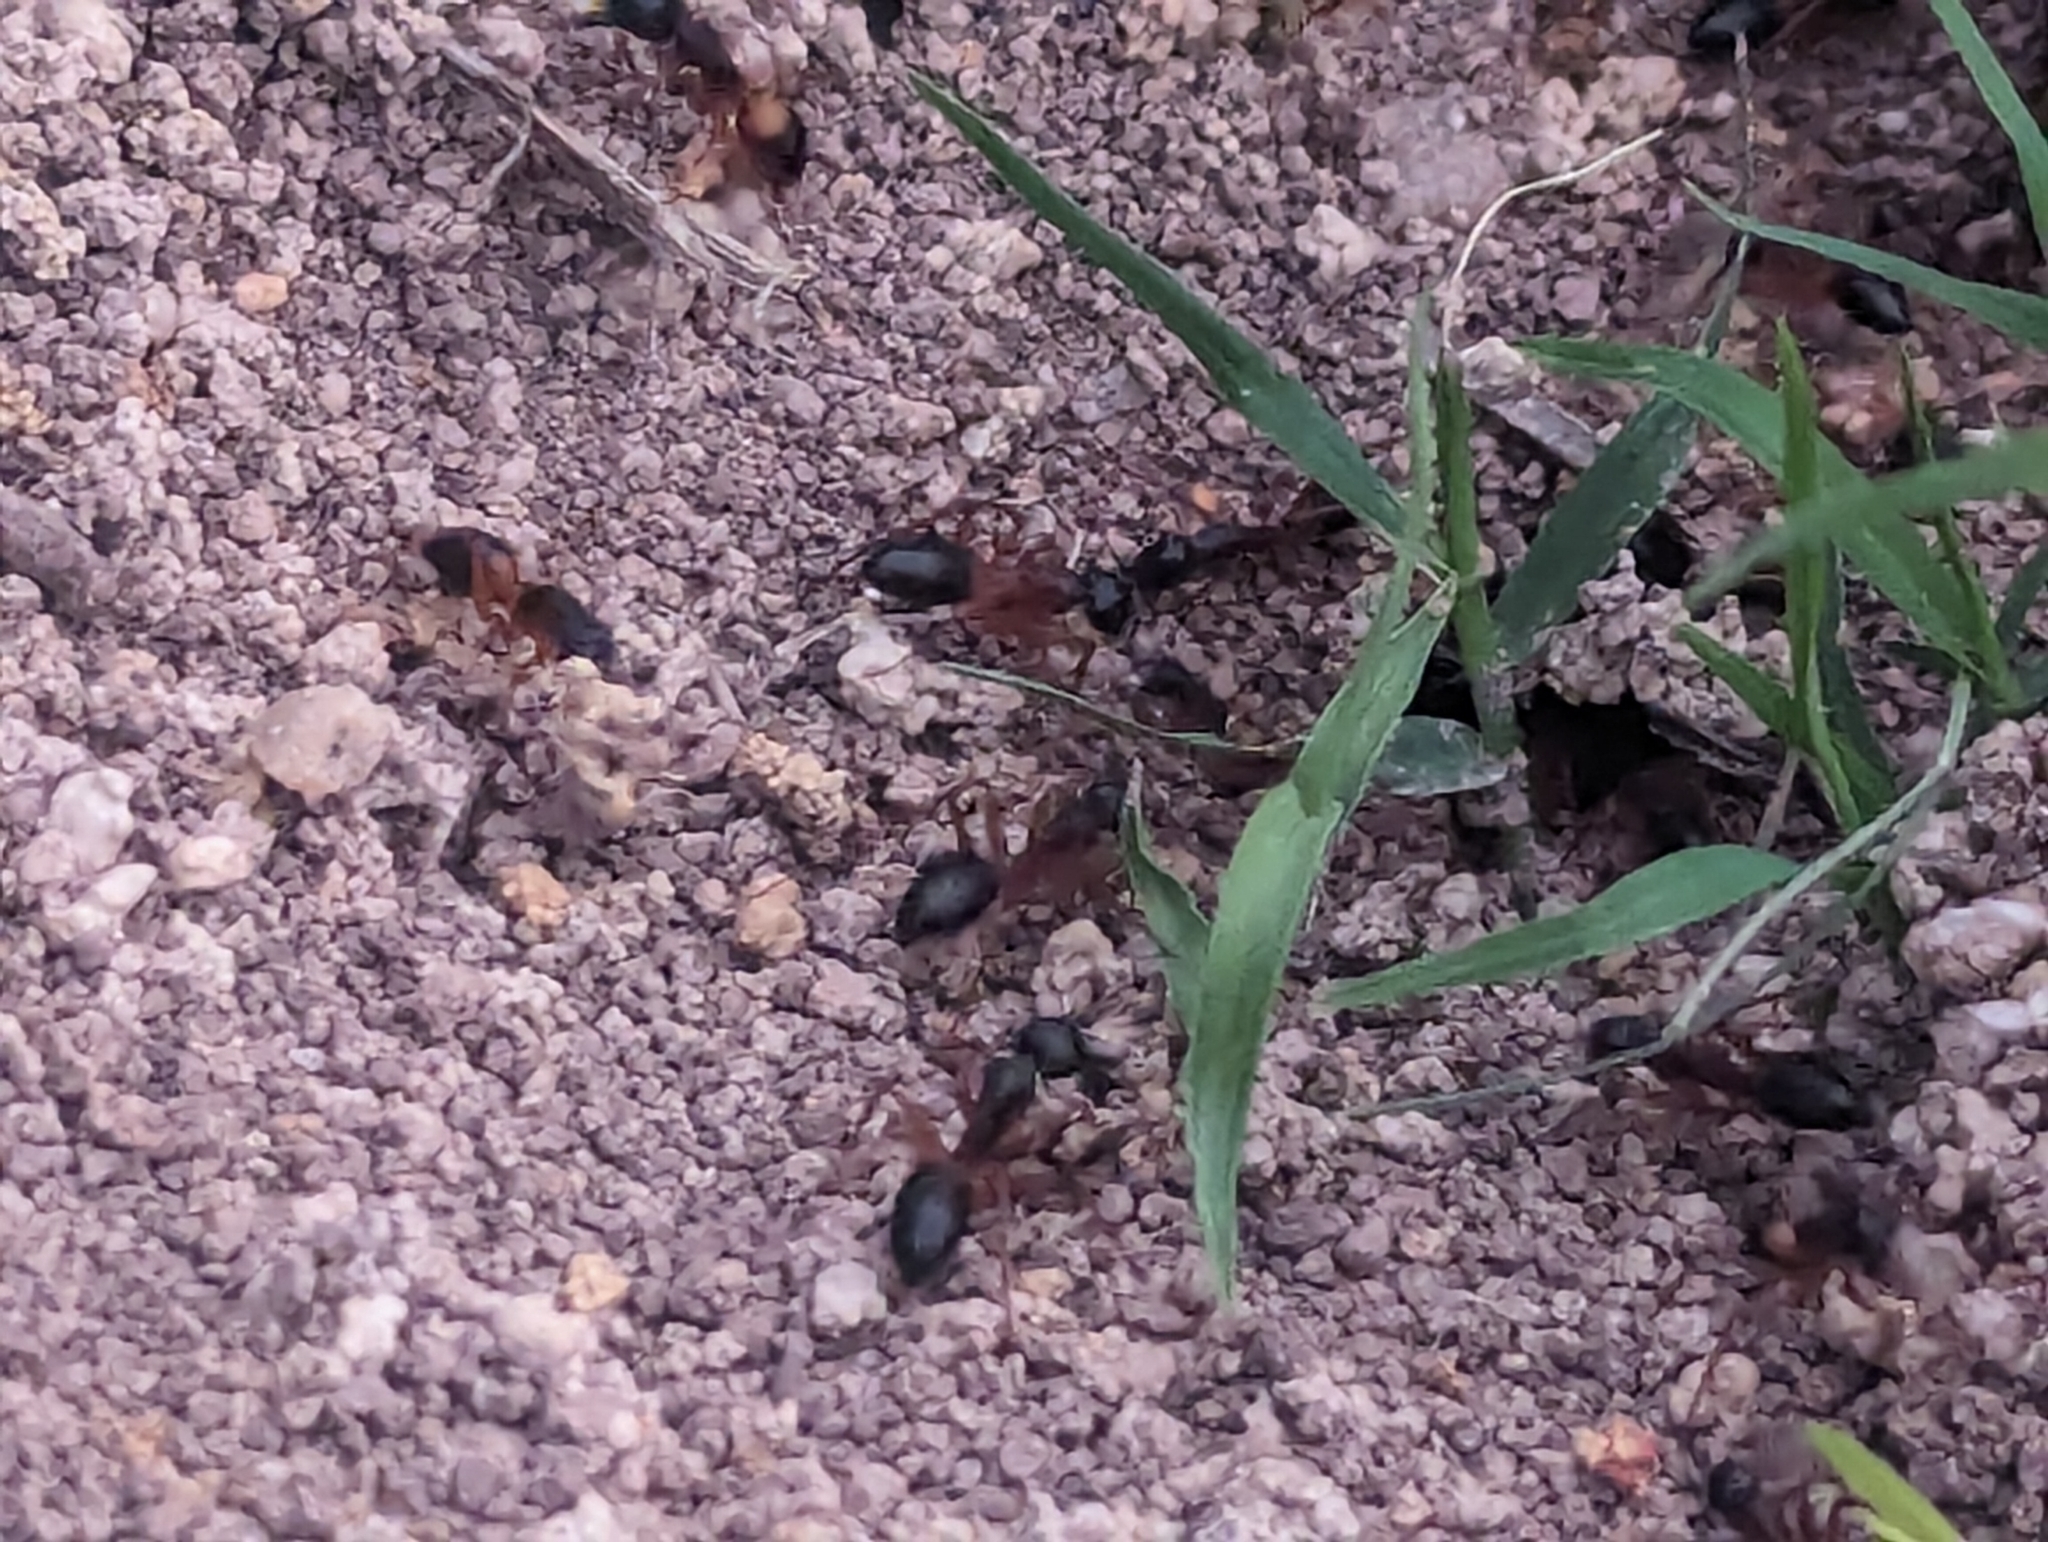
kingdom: Animalia
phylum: Arthropoda
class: Insecta
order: Hymenoptera
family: Formicidae
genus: Camponotus
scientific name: Camponotus consobrinus
